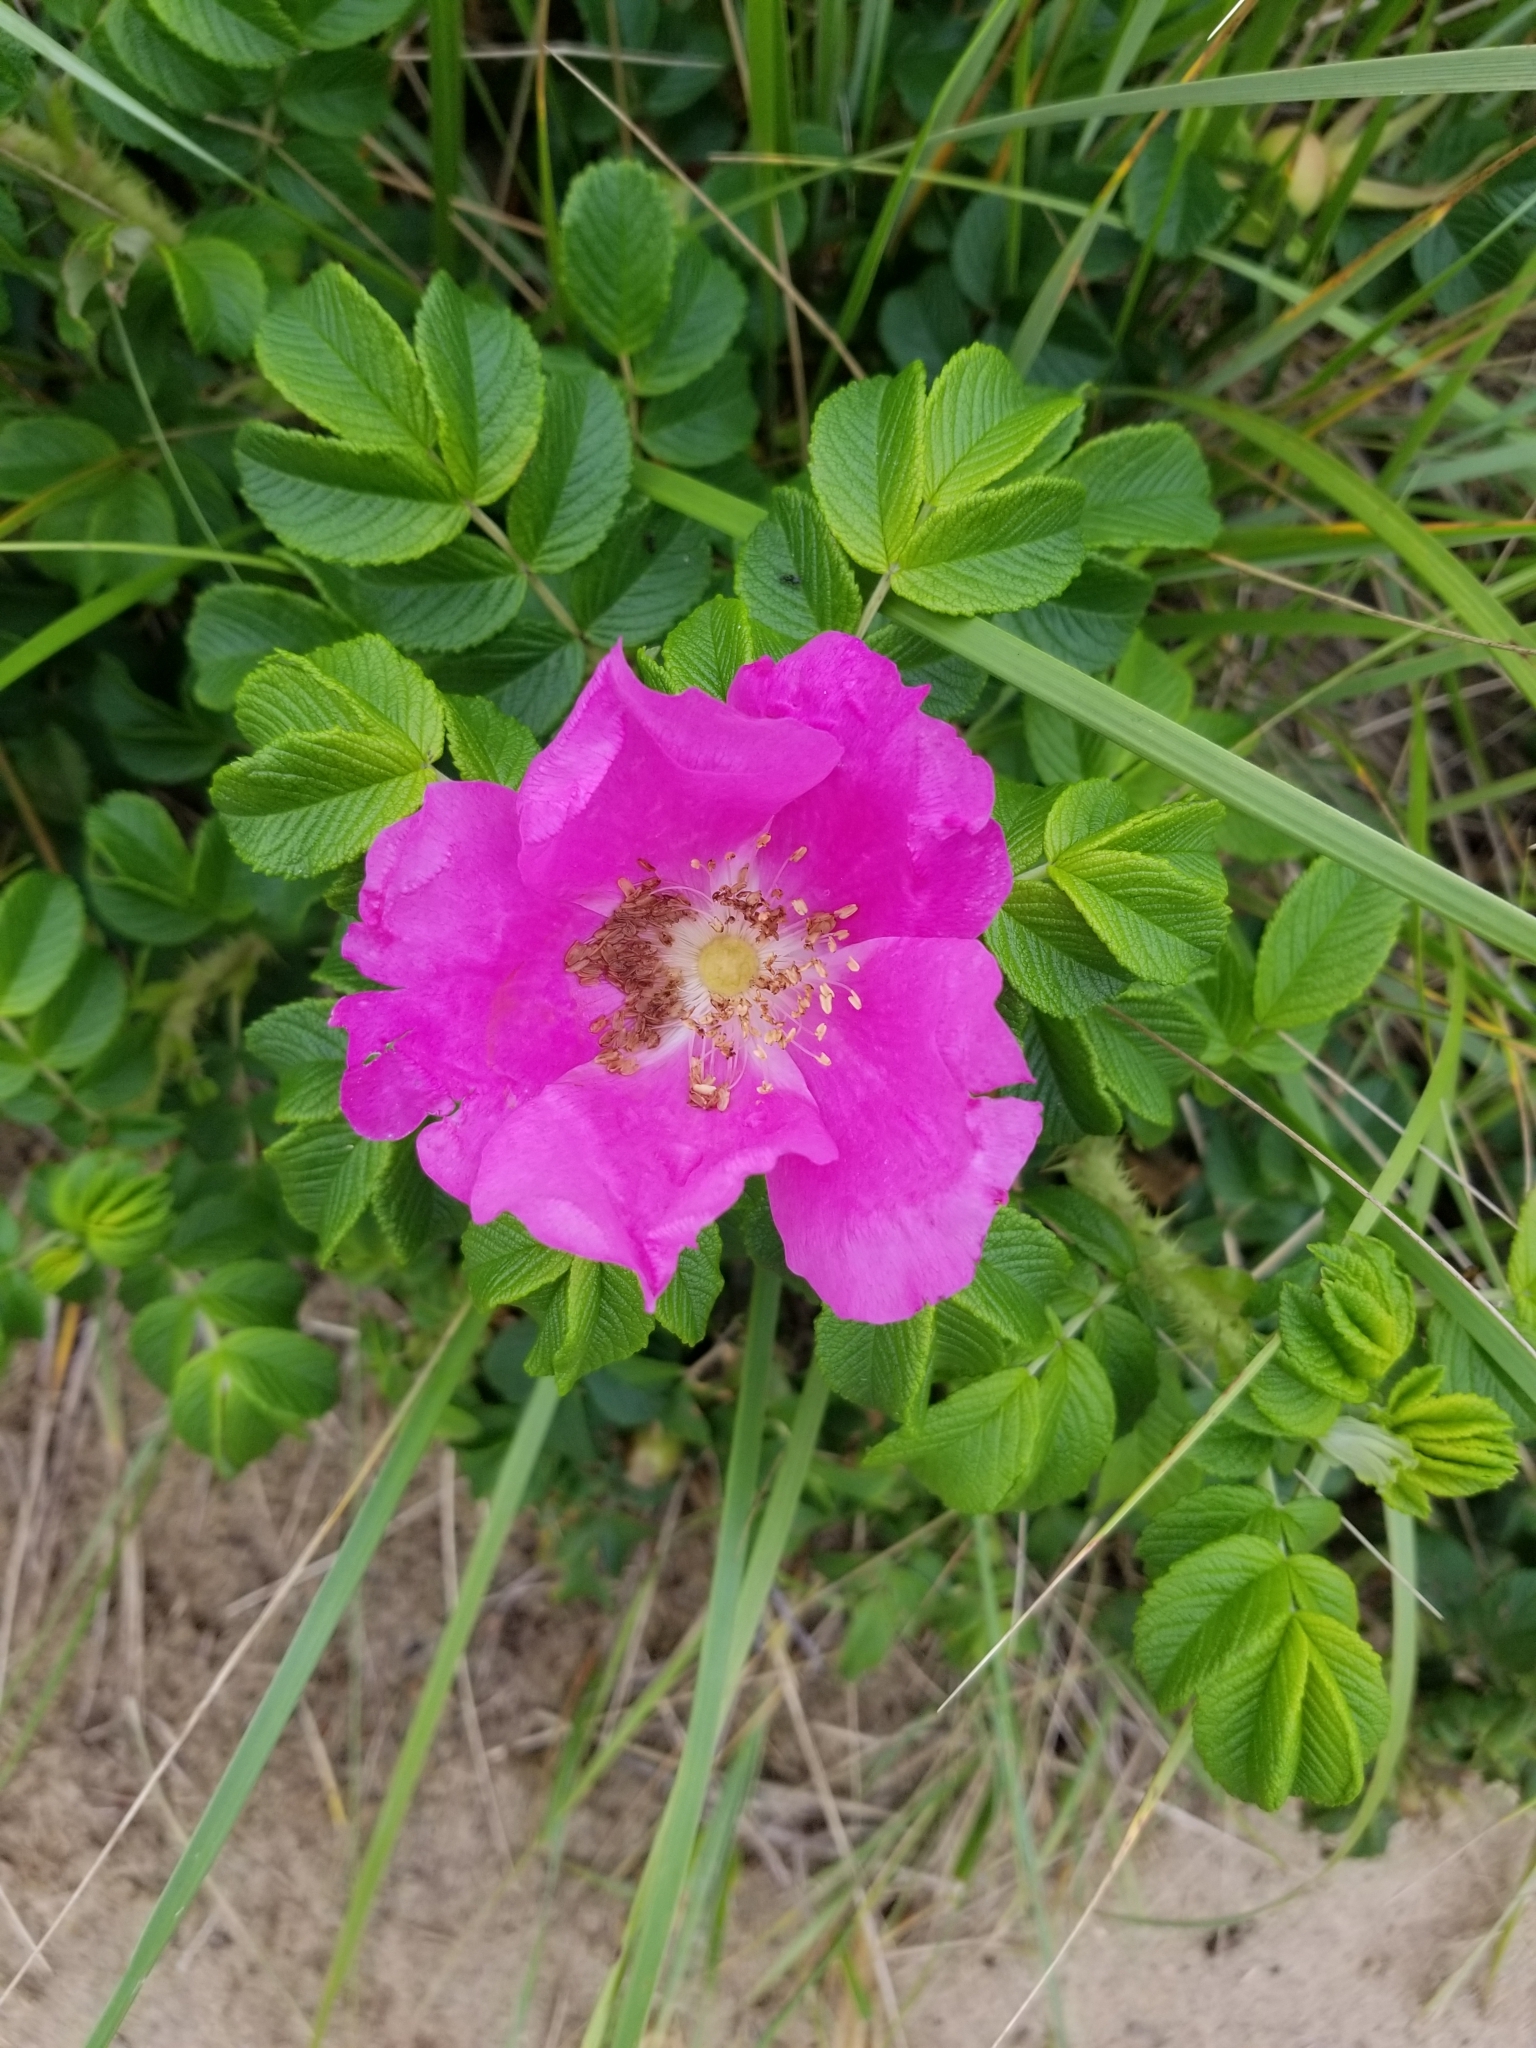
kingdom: Plantae
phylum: Tracheophyta
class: Magnoliopsida
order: Rosales
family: Rosaceae
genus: Rosa
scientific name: Rosa rugosa
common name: Japanese rose
